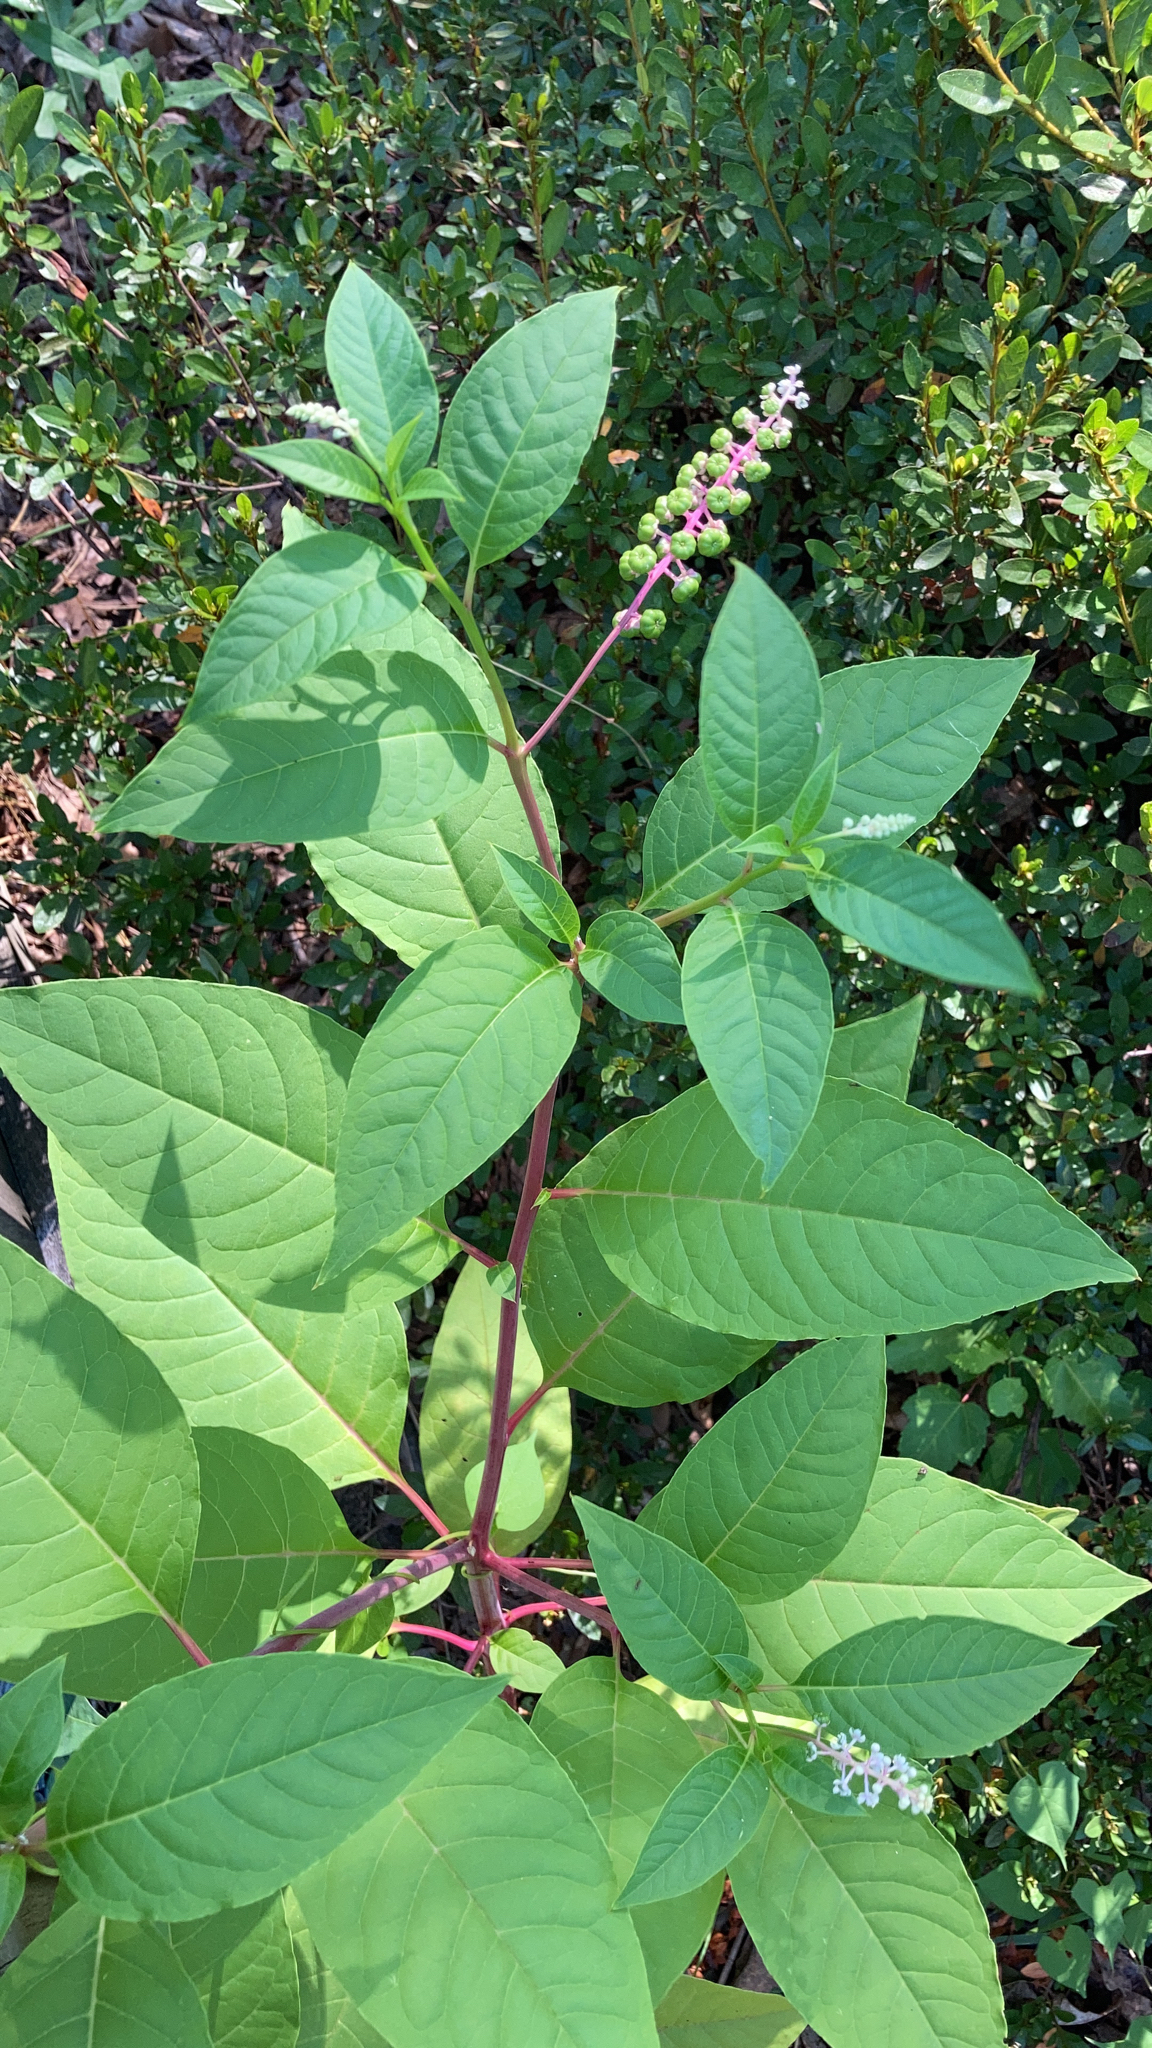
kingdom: Plantae
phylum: Tracheophyta
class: Magnoliopsida
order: Caryophyllales
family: Phytolaccaceae
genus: Phytolacca
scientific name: Phytolacca americana
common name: American pokeweed
